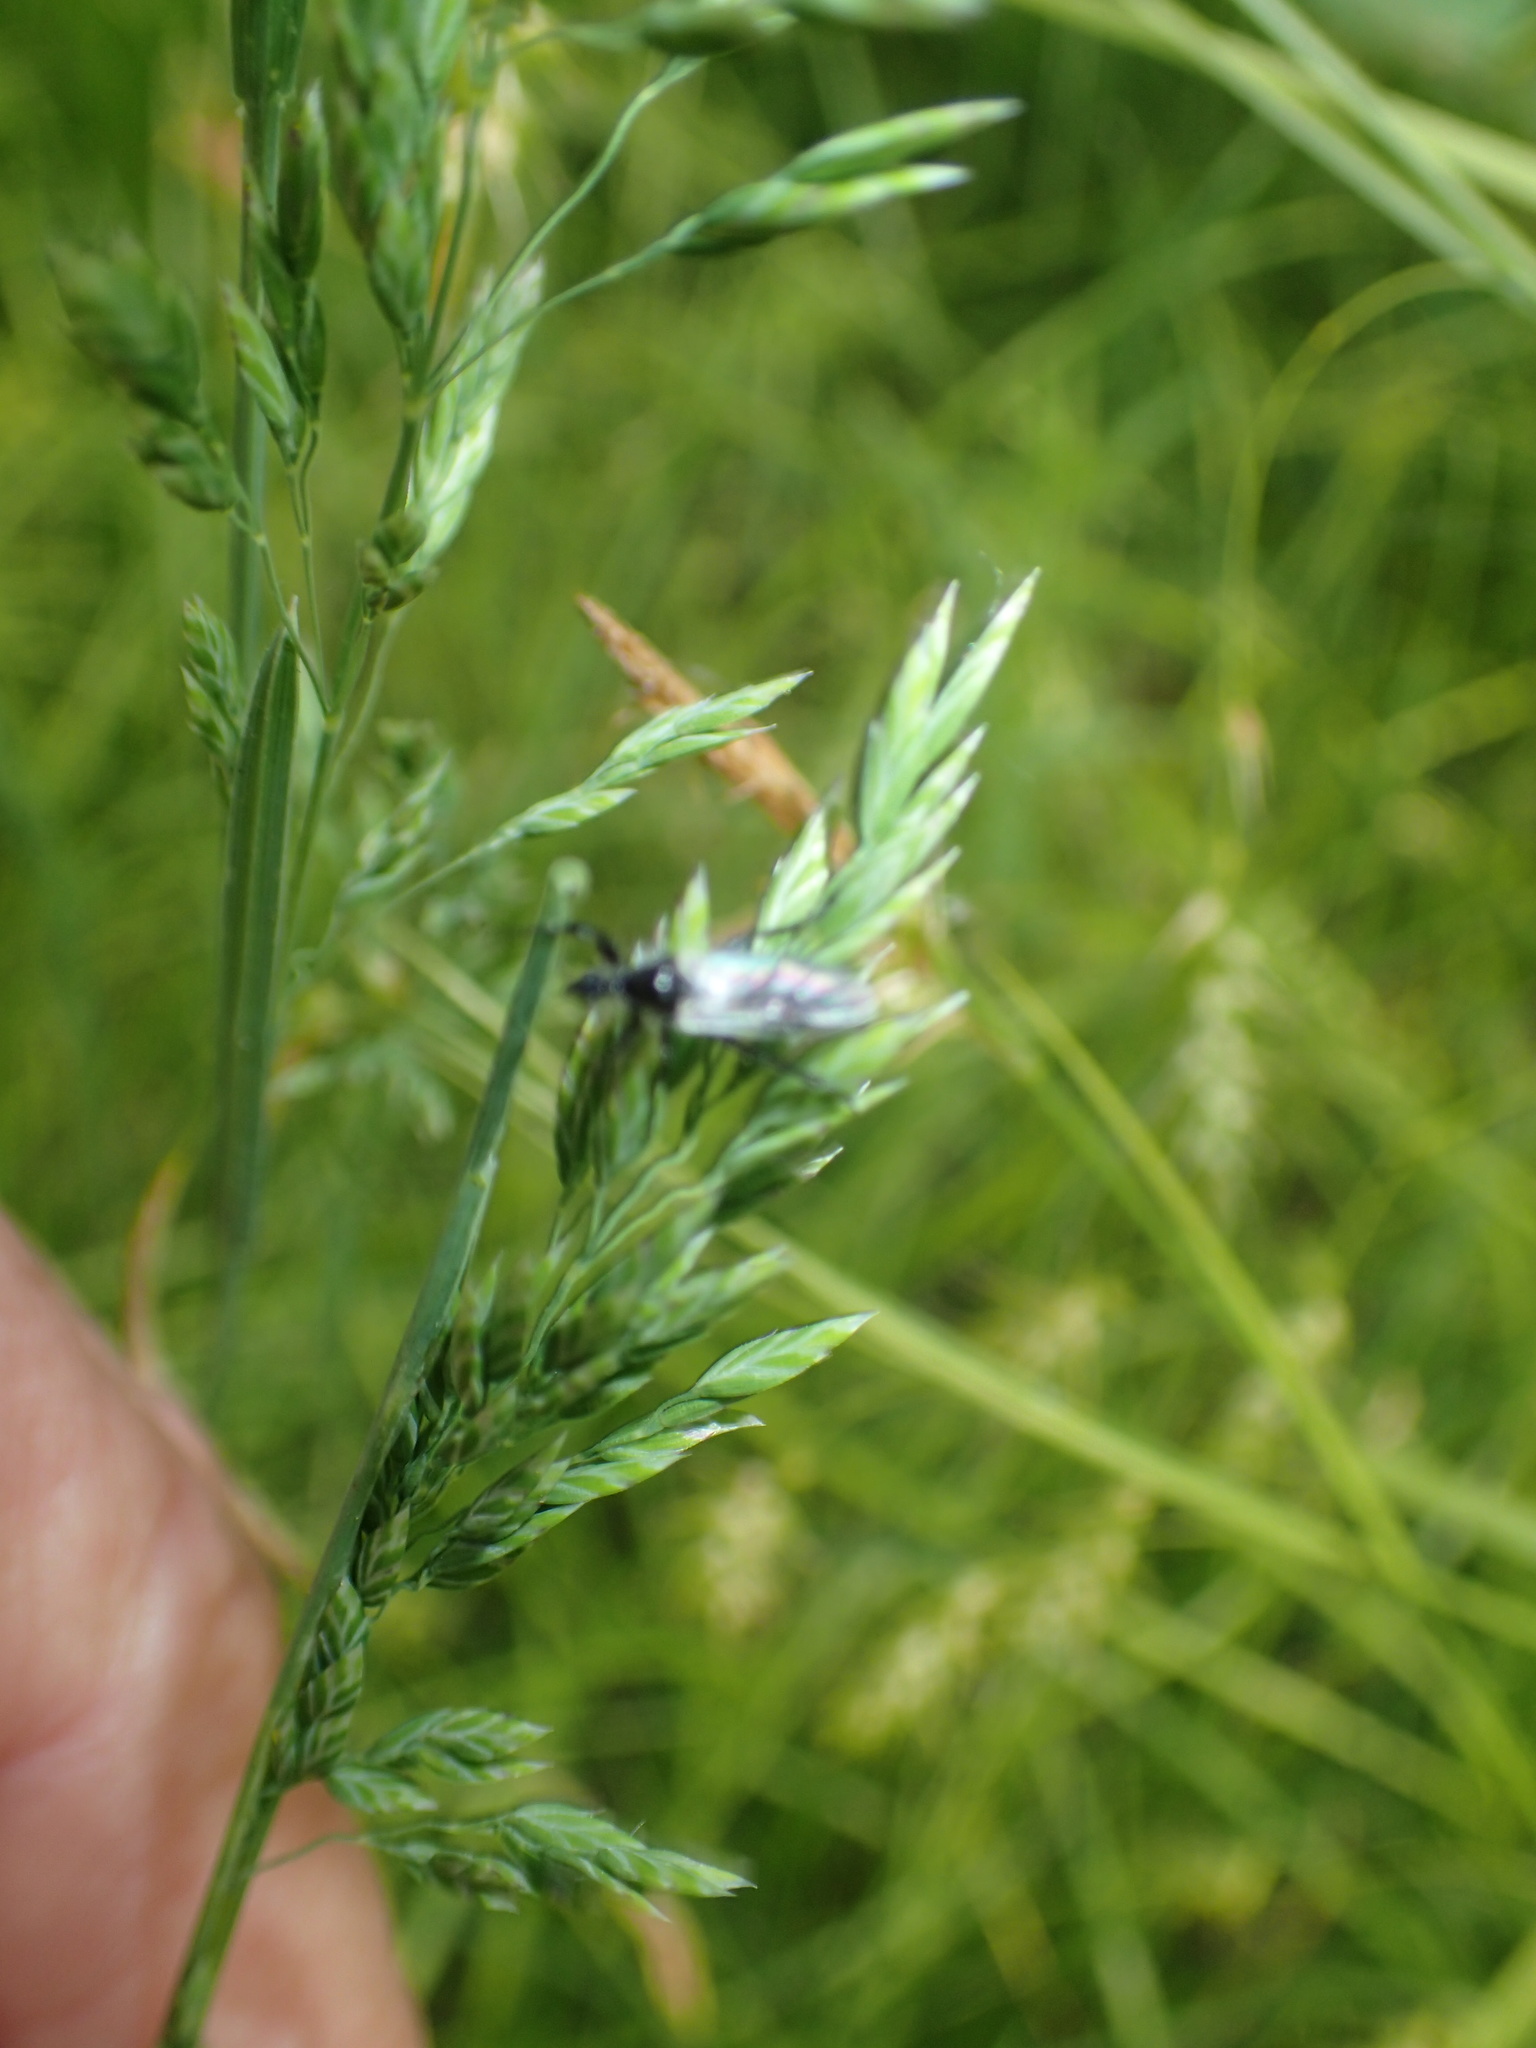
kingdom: Animalia
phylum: Arthropoda
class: Insecta
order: Diptera
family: Bibionidae
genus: Bibio
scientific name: Bibio albipennis
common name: White-winged march fly
